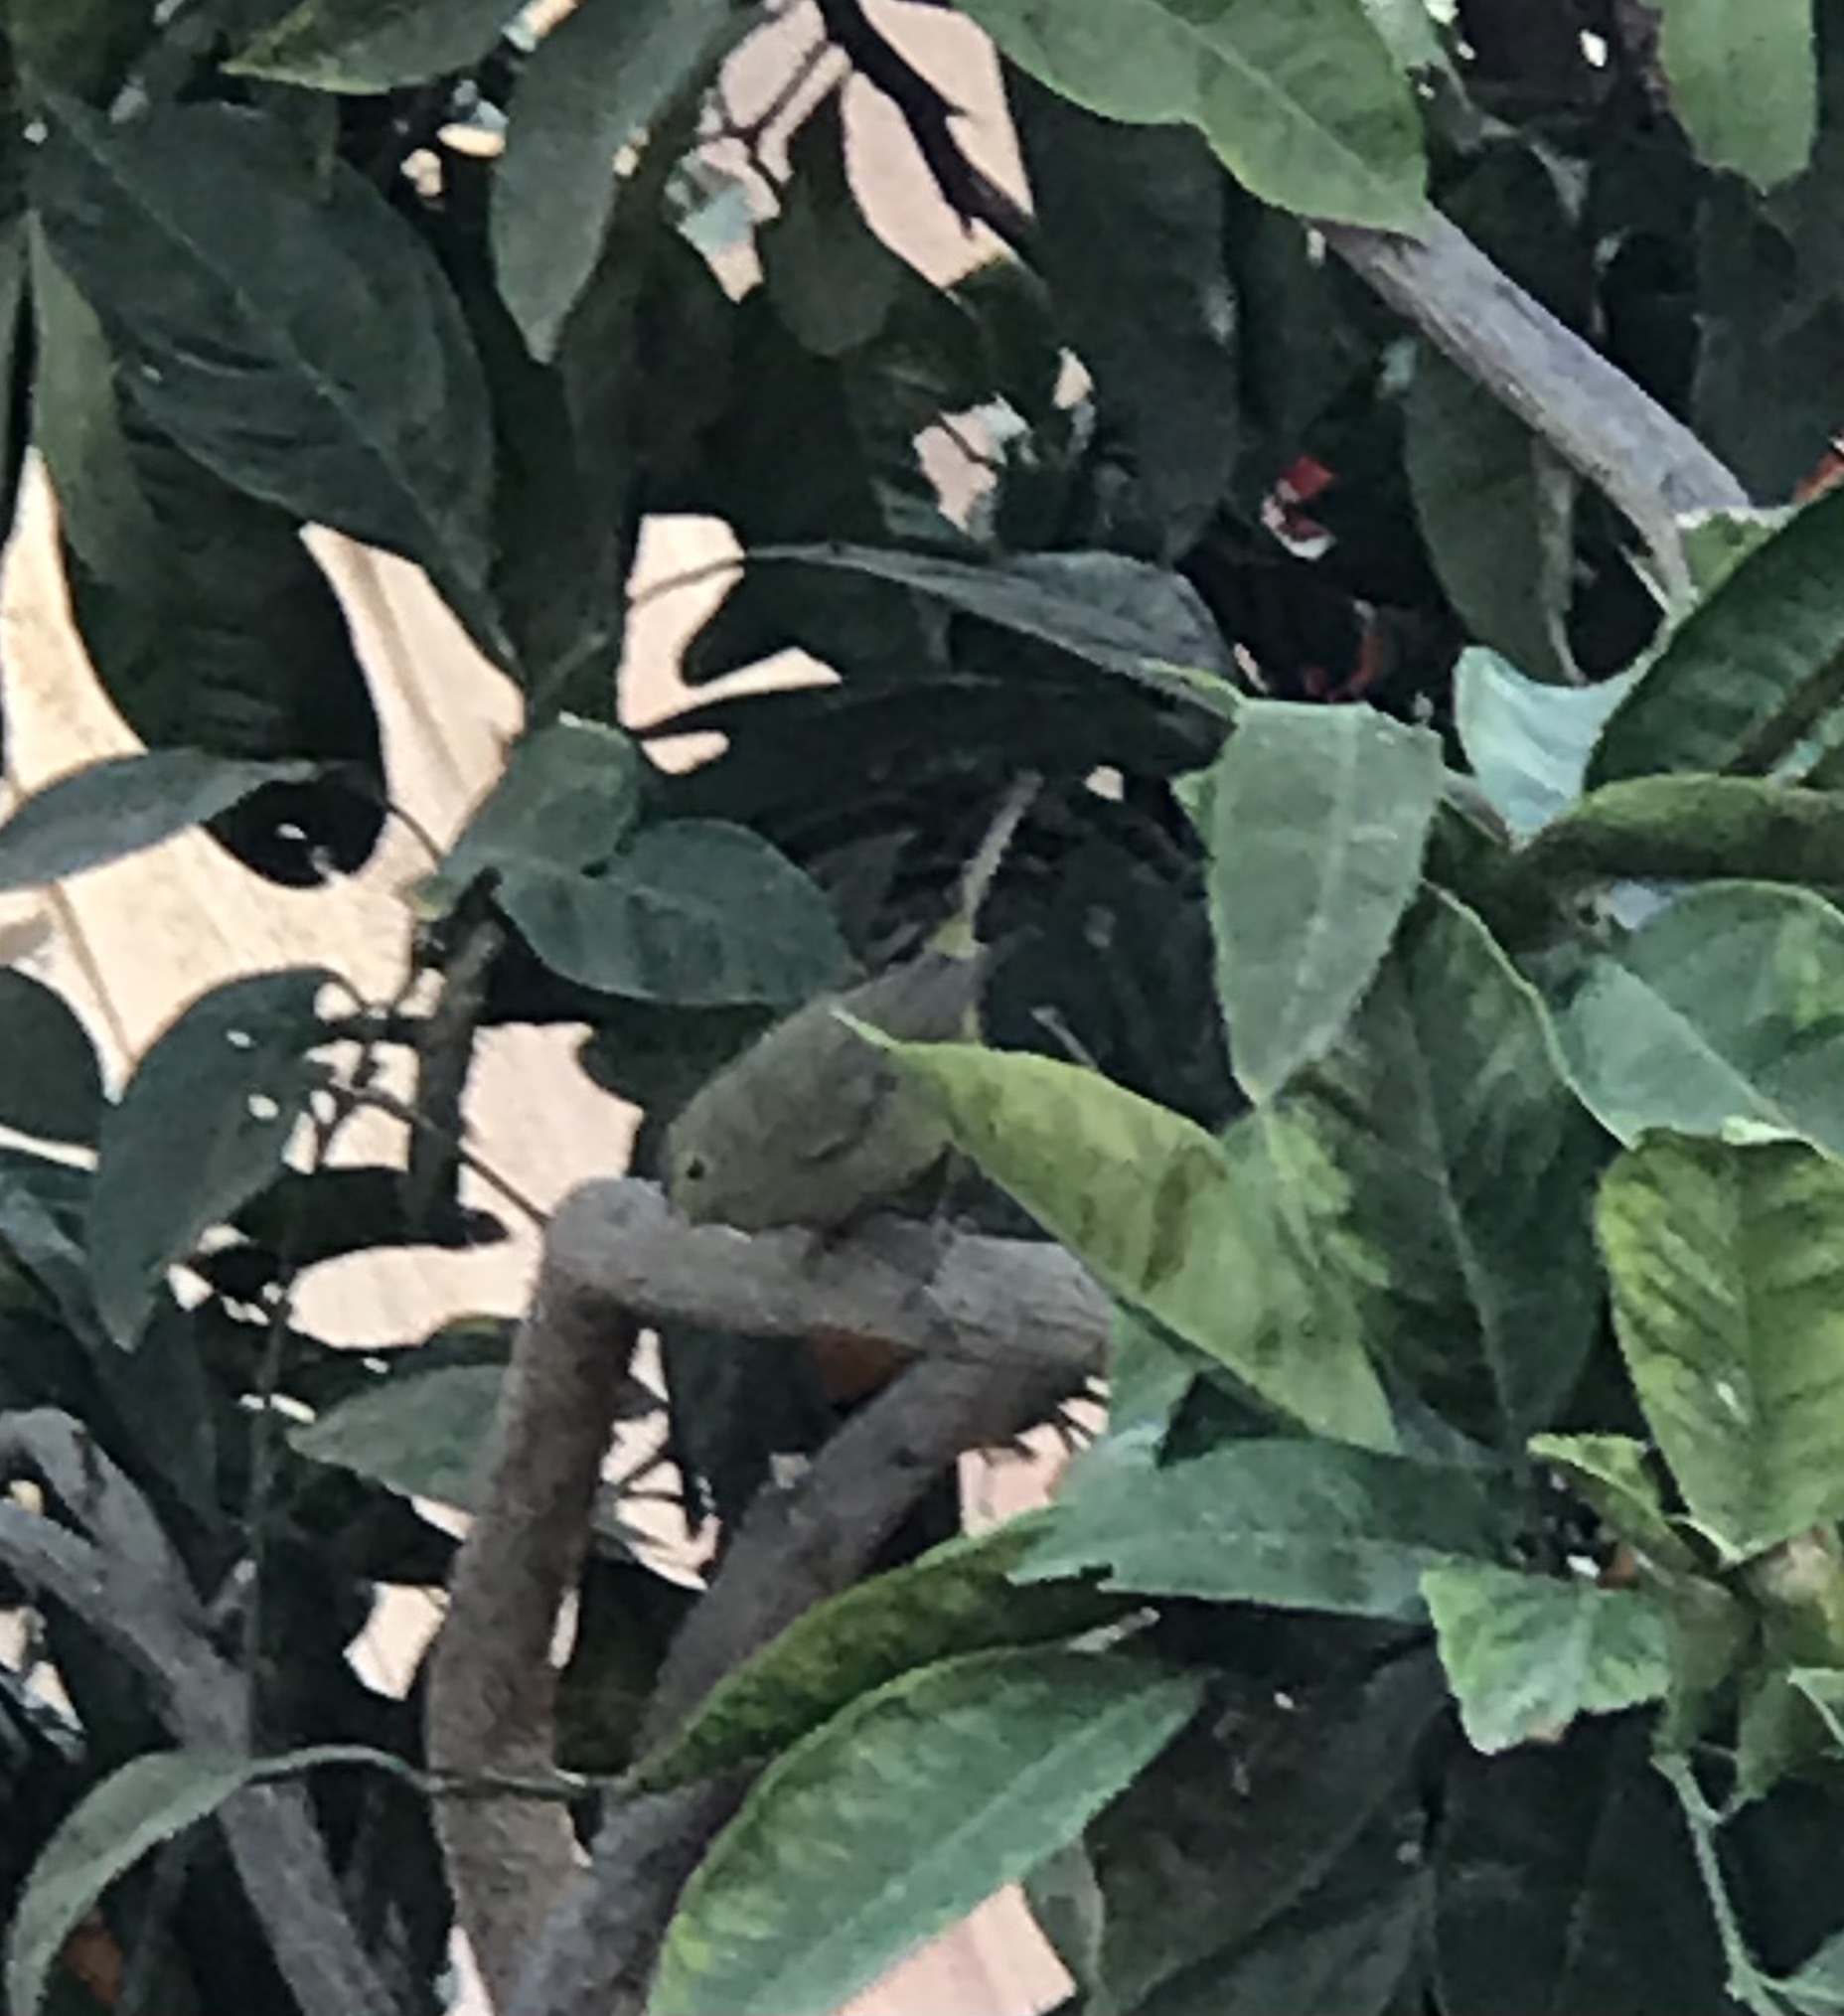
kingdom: Animalia
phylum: Chordata
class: Aves
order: Passeriformes
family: Parulidae
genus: Leiothlypis
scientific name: Leiothlypis celata
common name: Orange-crowned warbler
